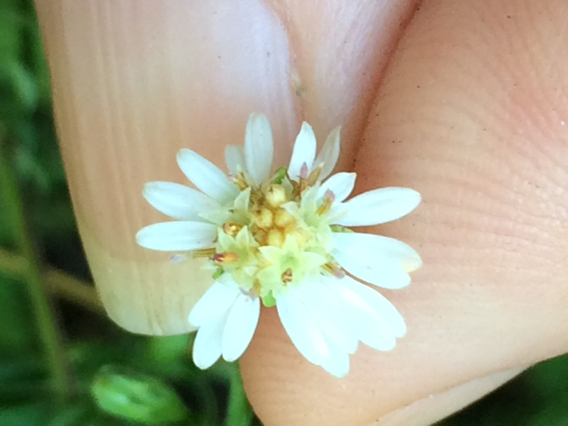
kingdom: Plantae
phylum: Tracheophyta
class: Magnoliopsida
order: Asterales
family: Asteraceae
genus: Symphyotrichum
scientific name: Symphyotrichum lateriflorum
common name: Calico aster
